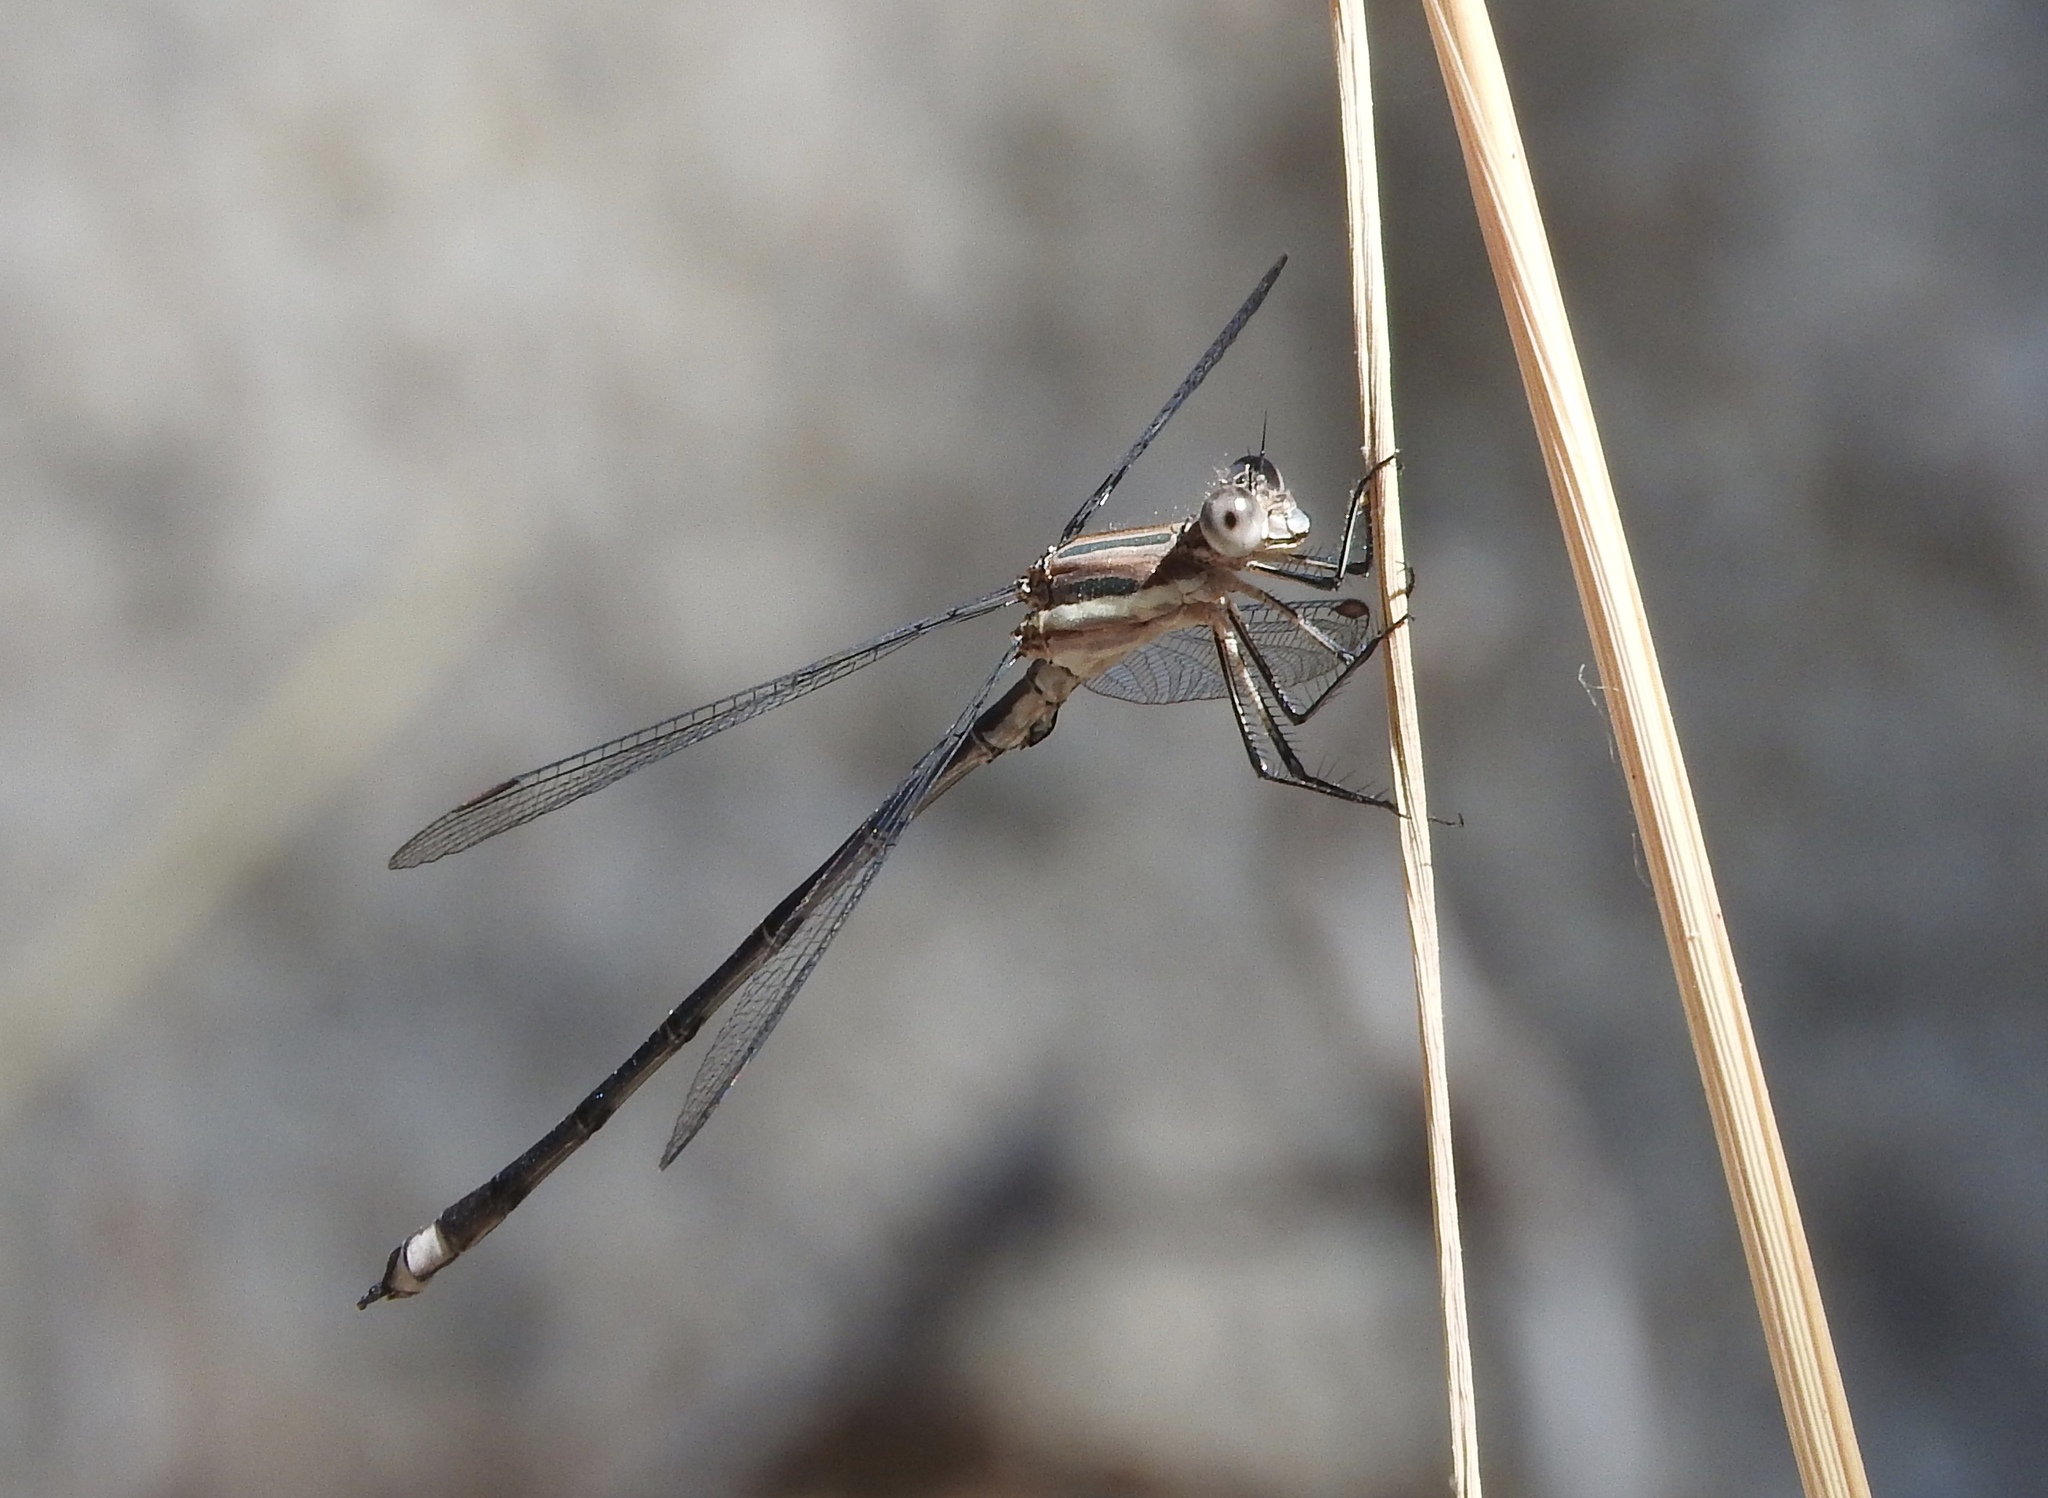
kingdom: Animalia
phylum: Arthropoda
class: Insecta
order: Odonata
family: Lestidae
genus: Archilestes
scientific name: Archilestes grandis
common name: Great spreadwing
